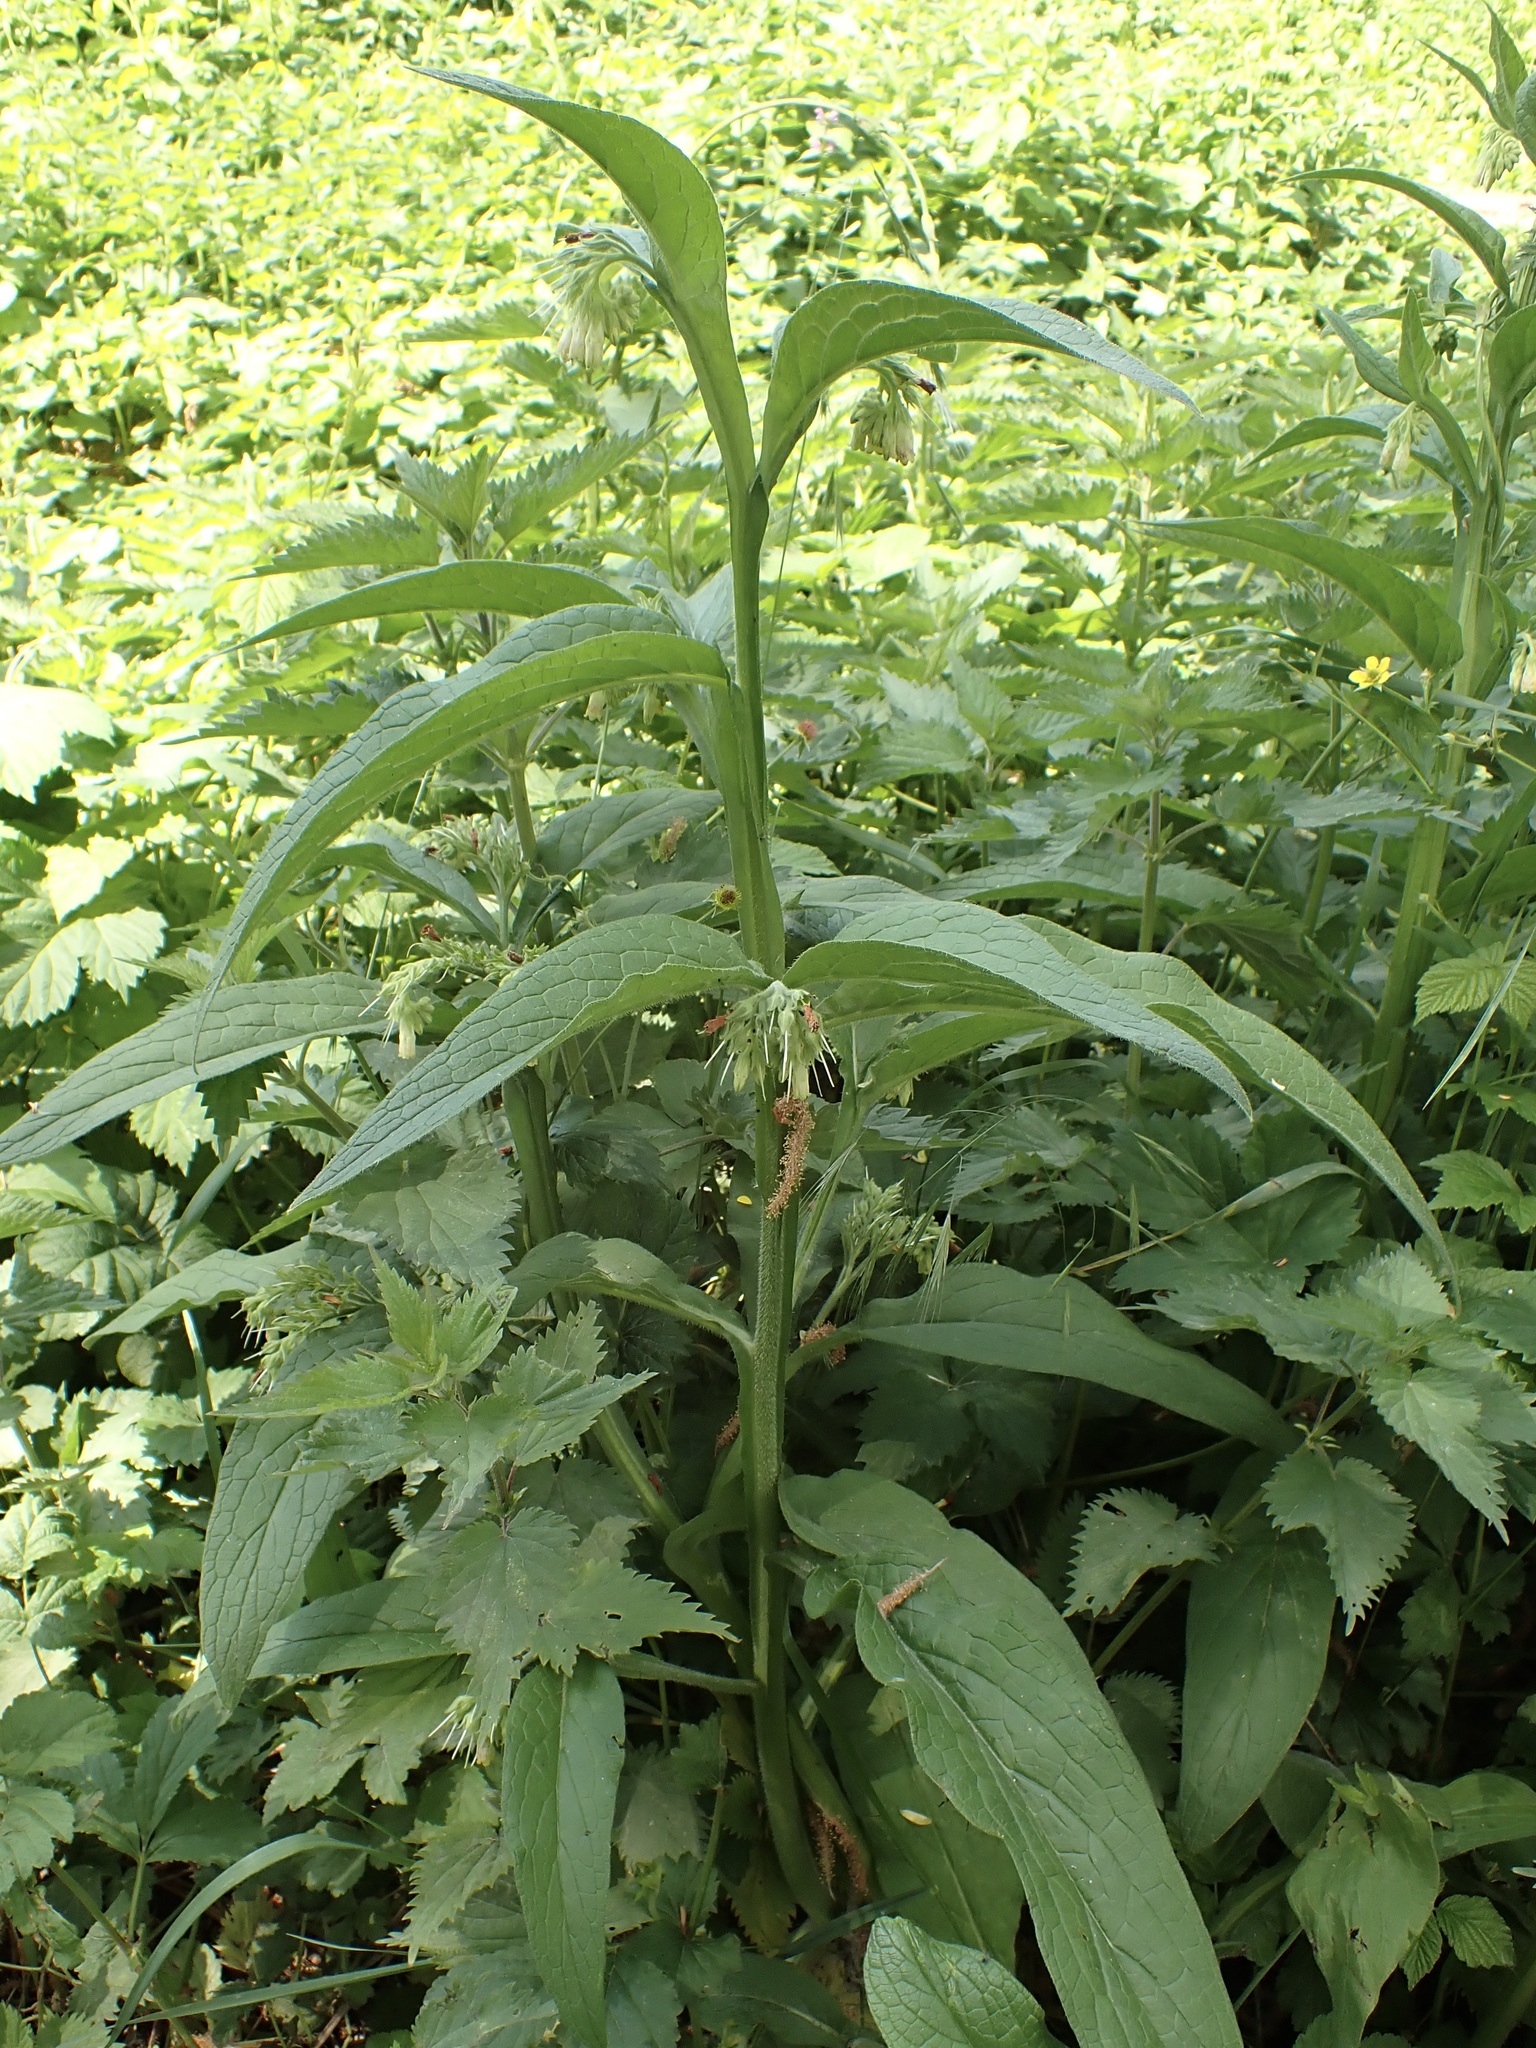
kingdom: Plantae
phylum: Tracheophyta
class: Magnoliopsida
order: Boraginales
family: Boraginaceae
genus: Symphytum
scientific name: Symphytum bohemicum
